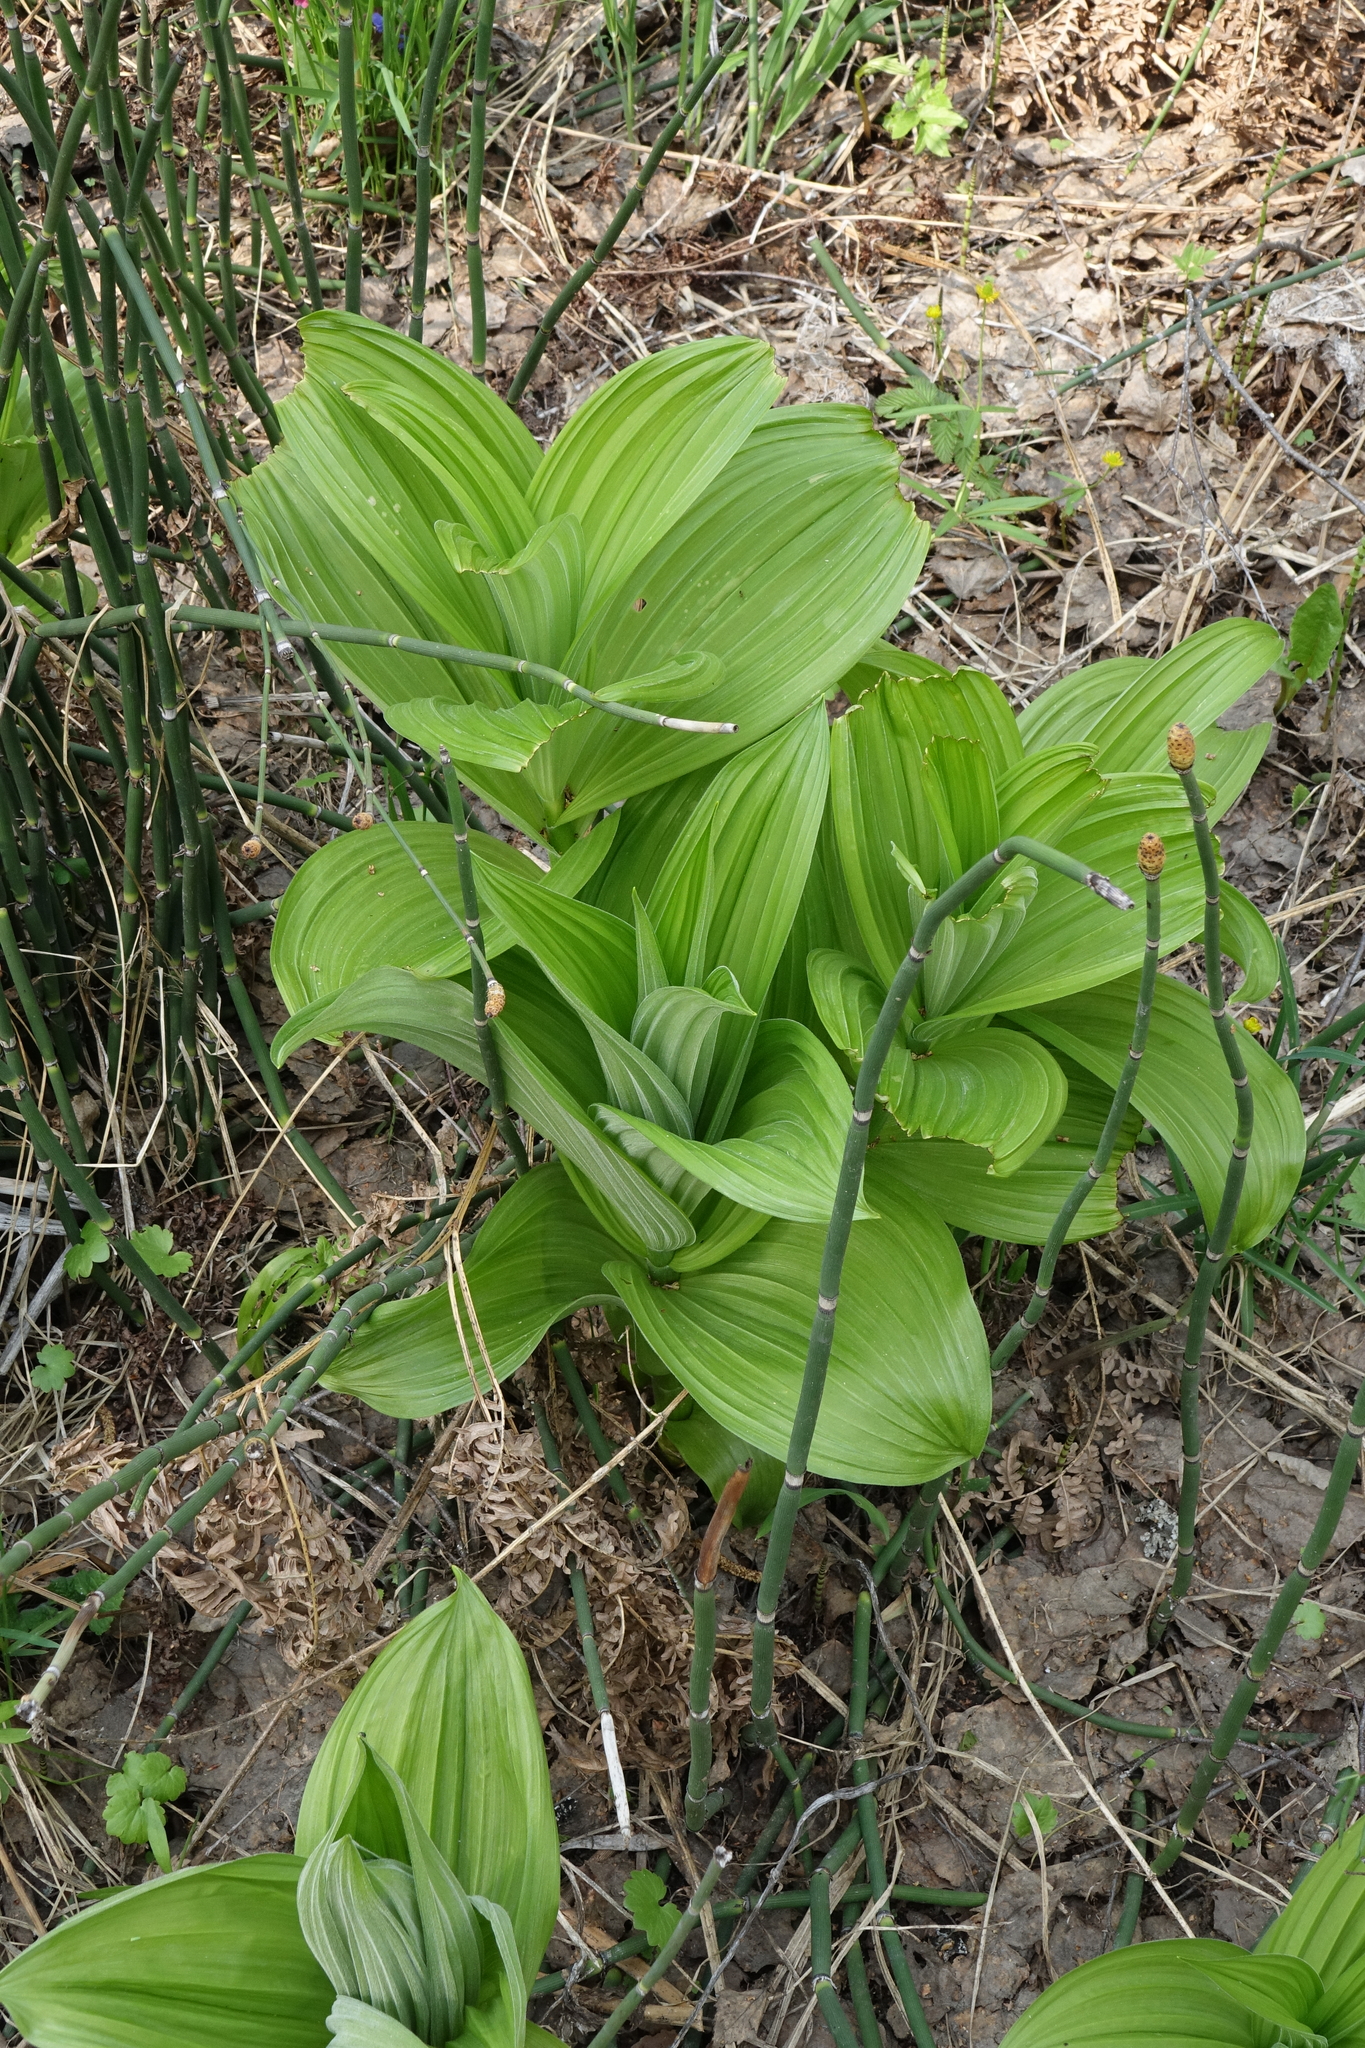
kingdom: Plantae
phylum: Tracheophyta
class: Liliopsida
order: Liliales
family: Melanthiaceae
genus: Veratrum
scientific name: Veratrum lobelianum
